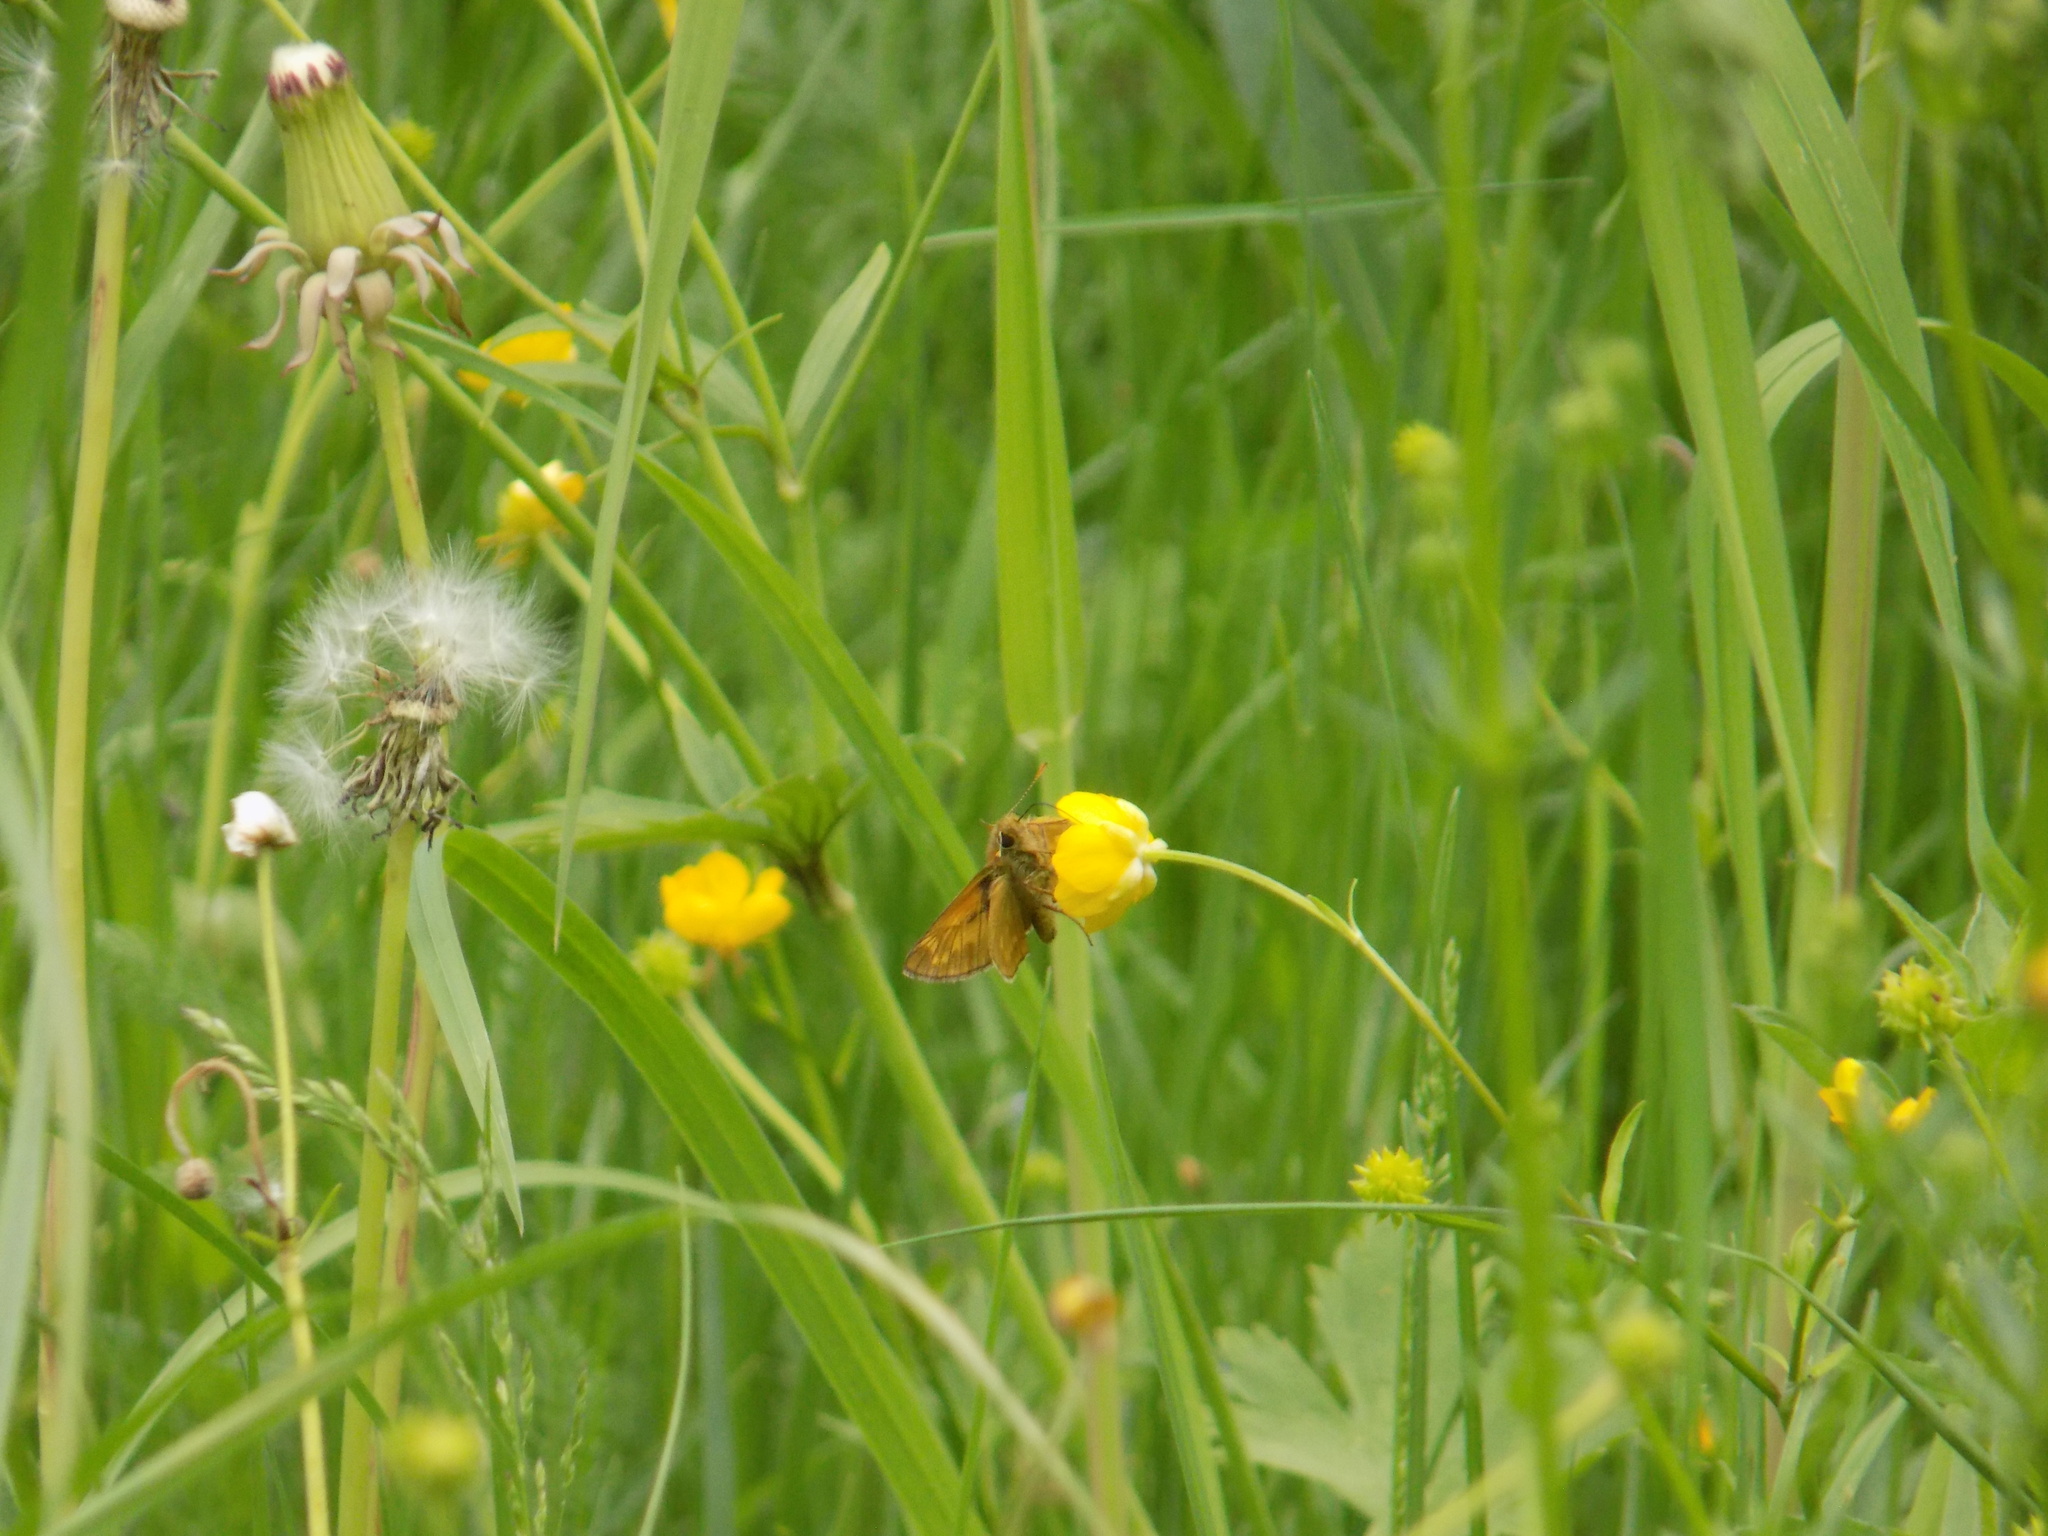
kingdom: Animalia
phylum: Arthropoda
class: Insecta
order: Lepidoptera
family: Hesperiidae
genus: Ochlodes
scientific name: Ochlodes venata
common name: Large skipper
